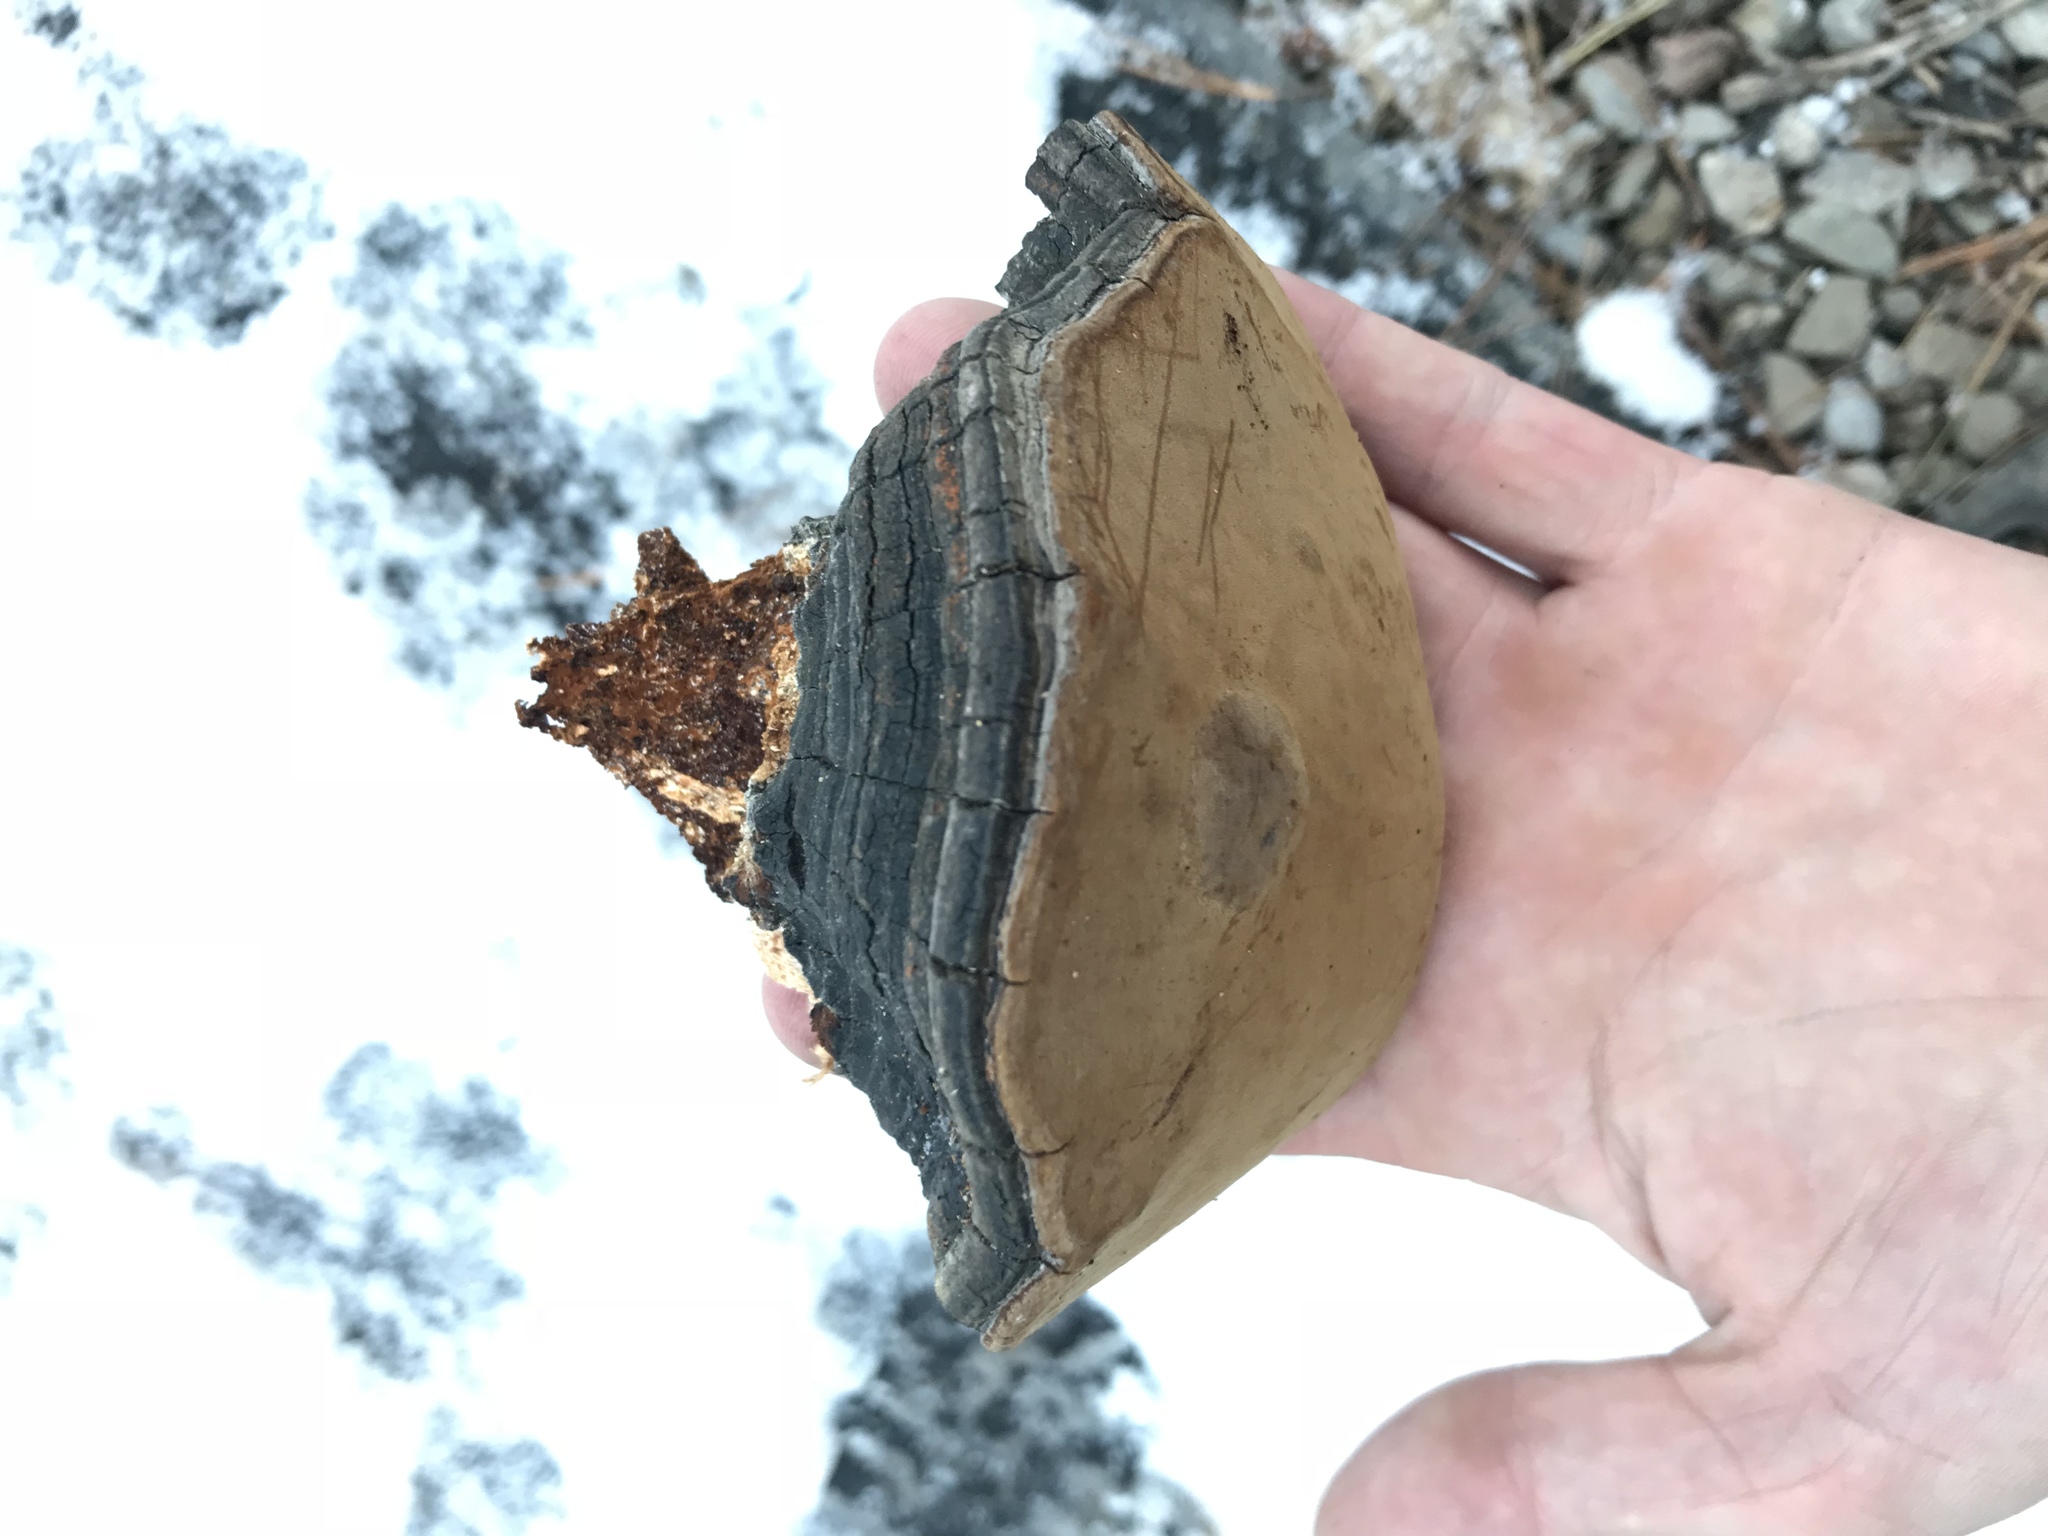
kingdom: Fungi
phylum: Basidiomycota
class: Agaricomycetes
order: Hymenochaetales
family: Hymenochaetaceae
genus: Phellinus
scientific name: Phellinus tremulae
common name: Aspen bracket
